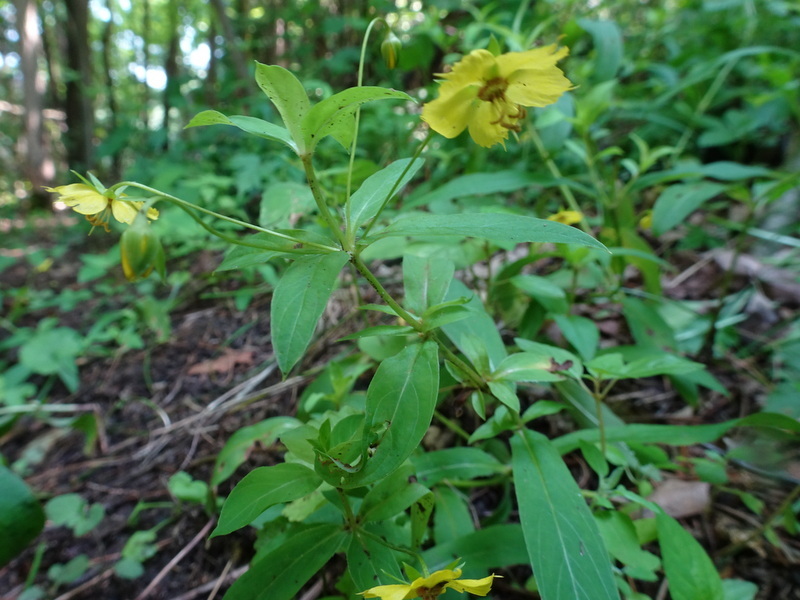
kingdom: Plantae
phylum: Tracheophyta
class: Magnoliopsida
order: Ericales
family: Primulaceae
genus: Lysimachia
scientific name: Lysimachia ciliata
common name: Fringed loosestrife
